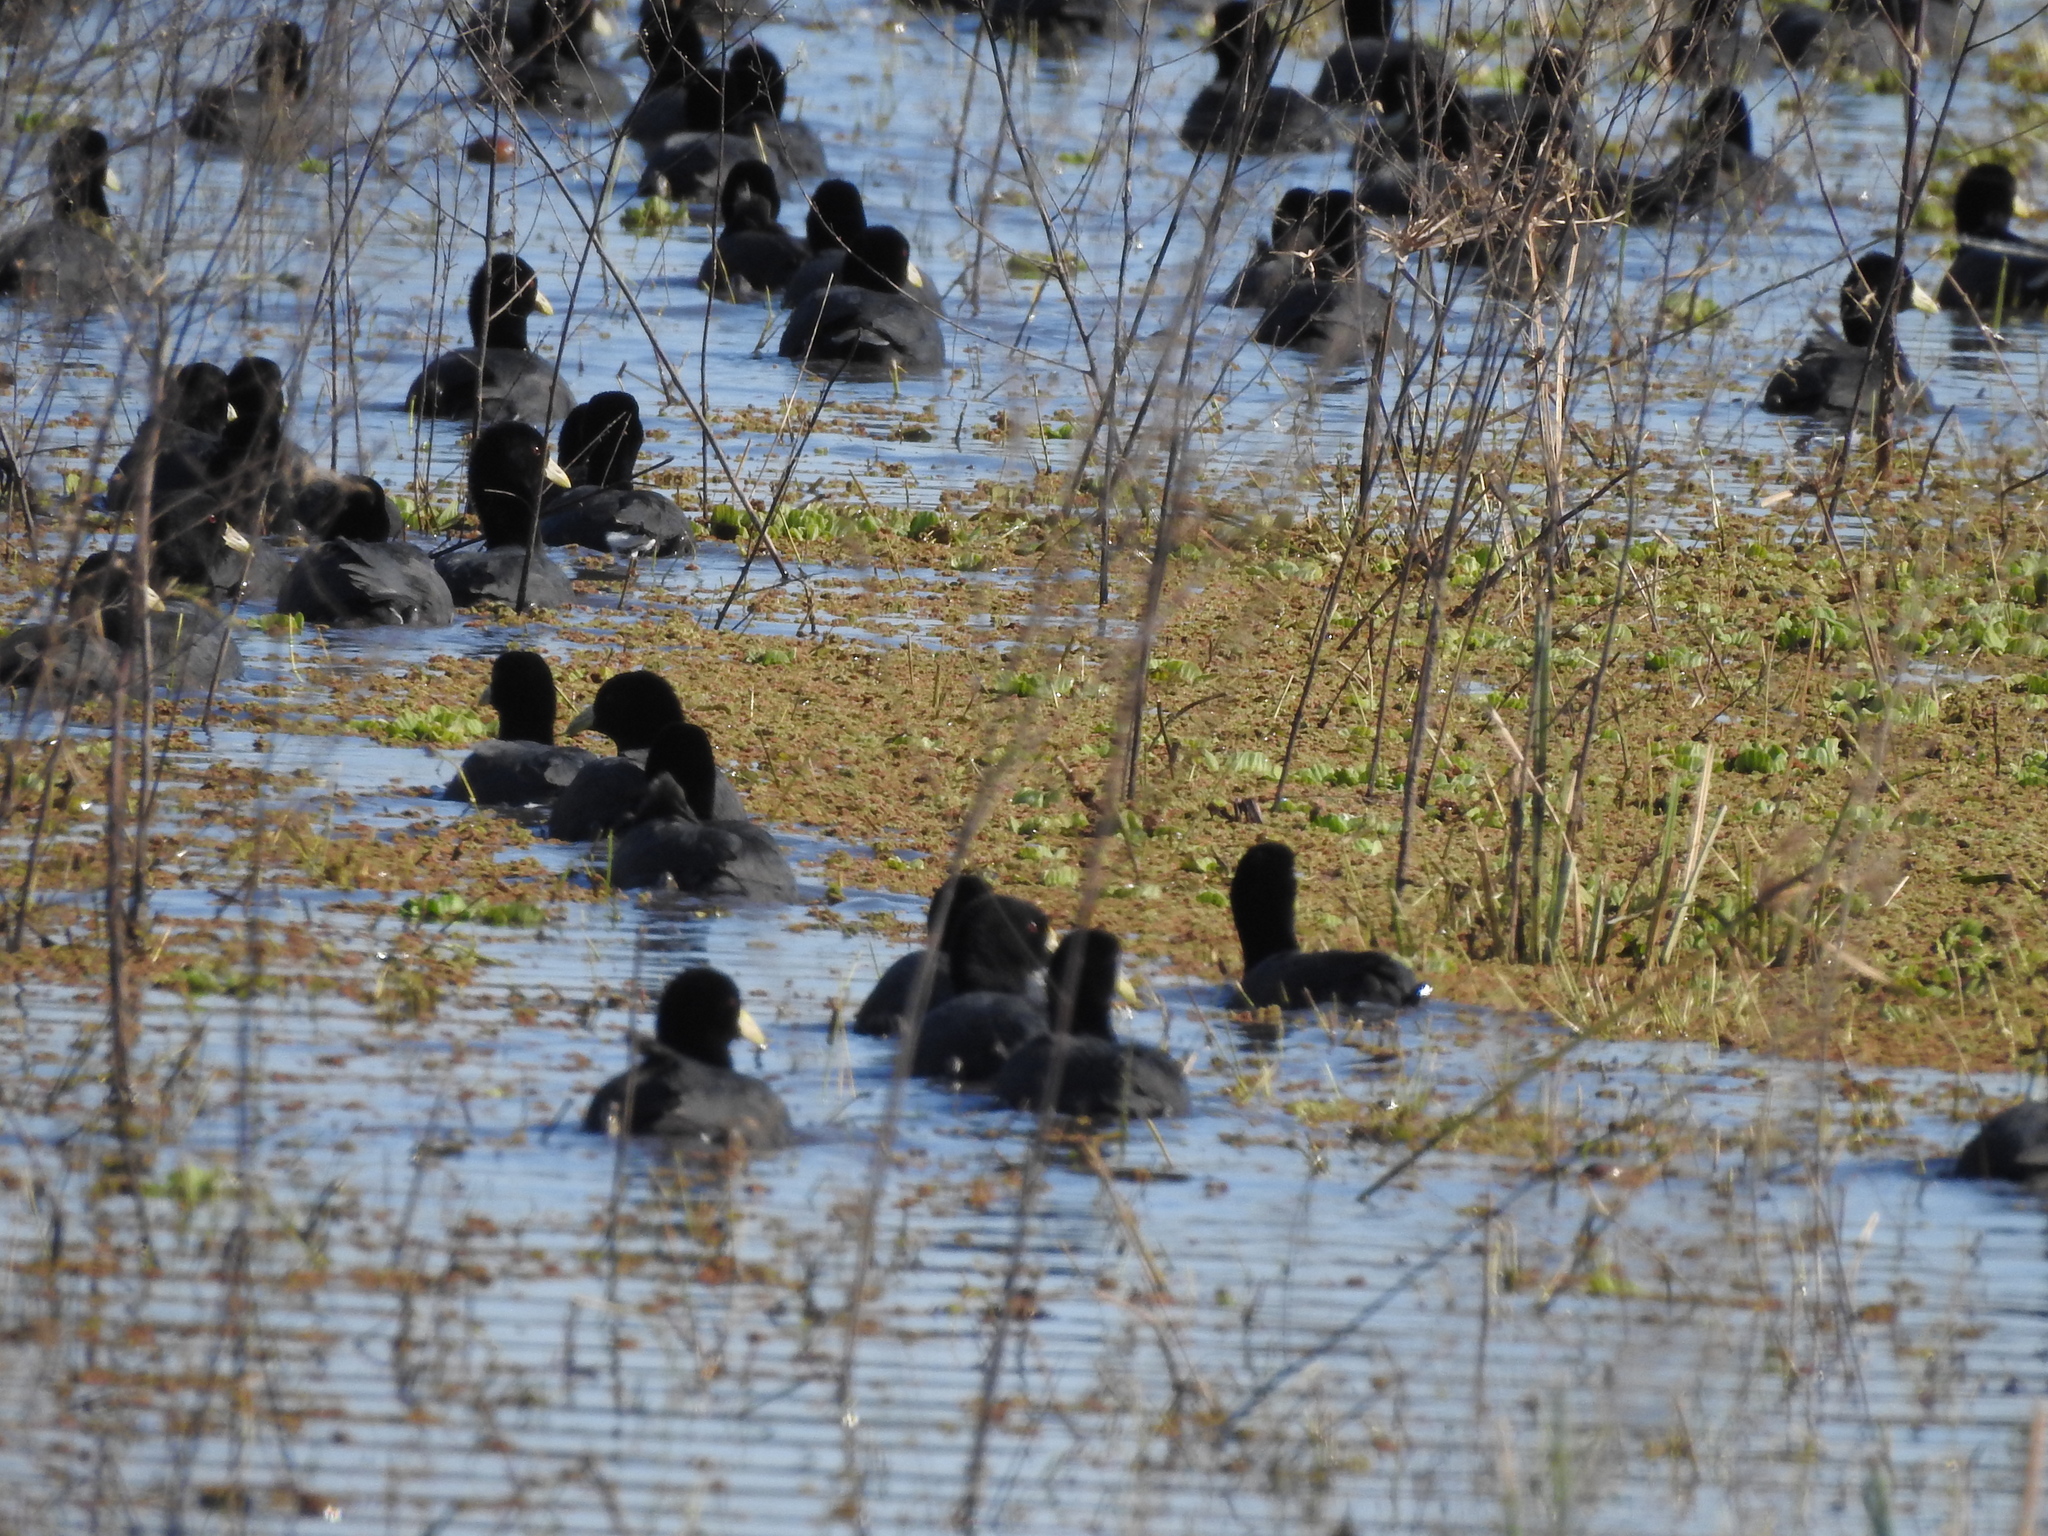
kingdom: Animalia
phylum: Chordata
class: Aves
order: Gruiformes
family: Rallidae
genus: Fulica
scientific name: Fulica leucoptera
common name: White-winged coot
